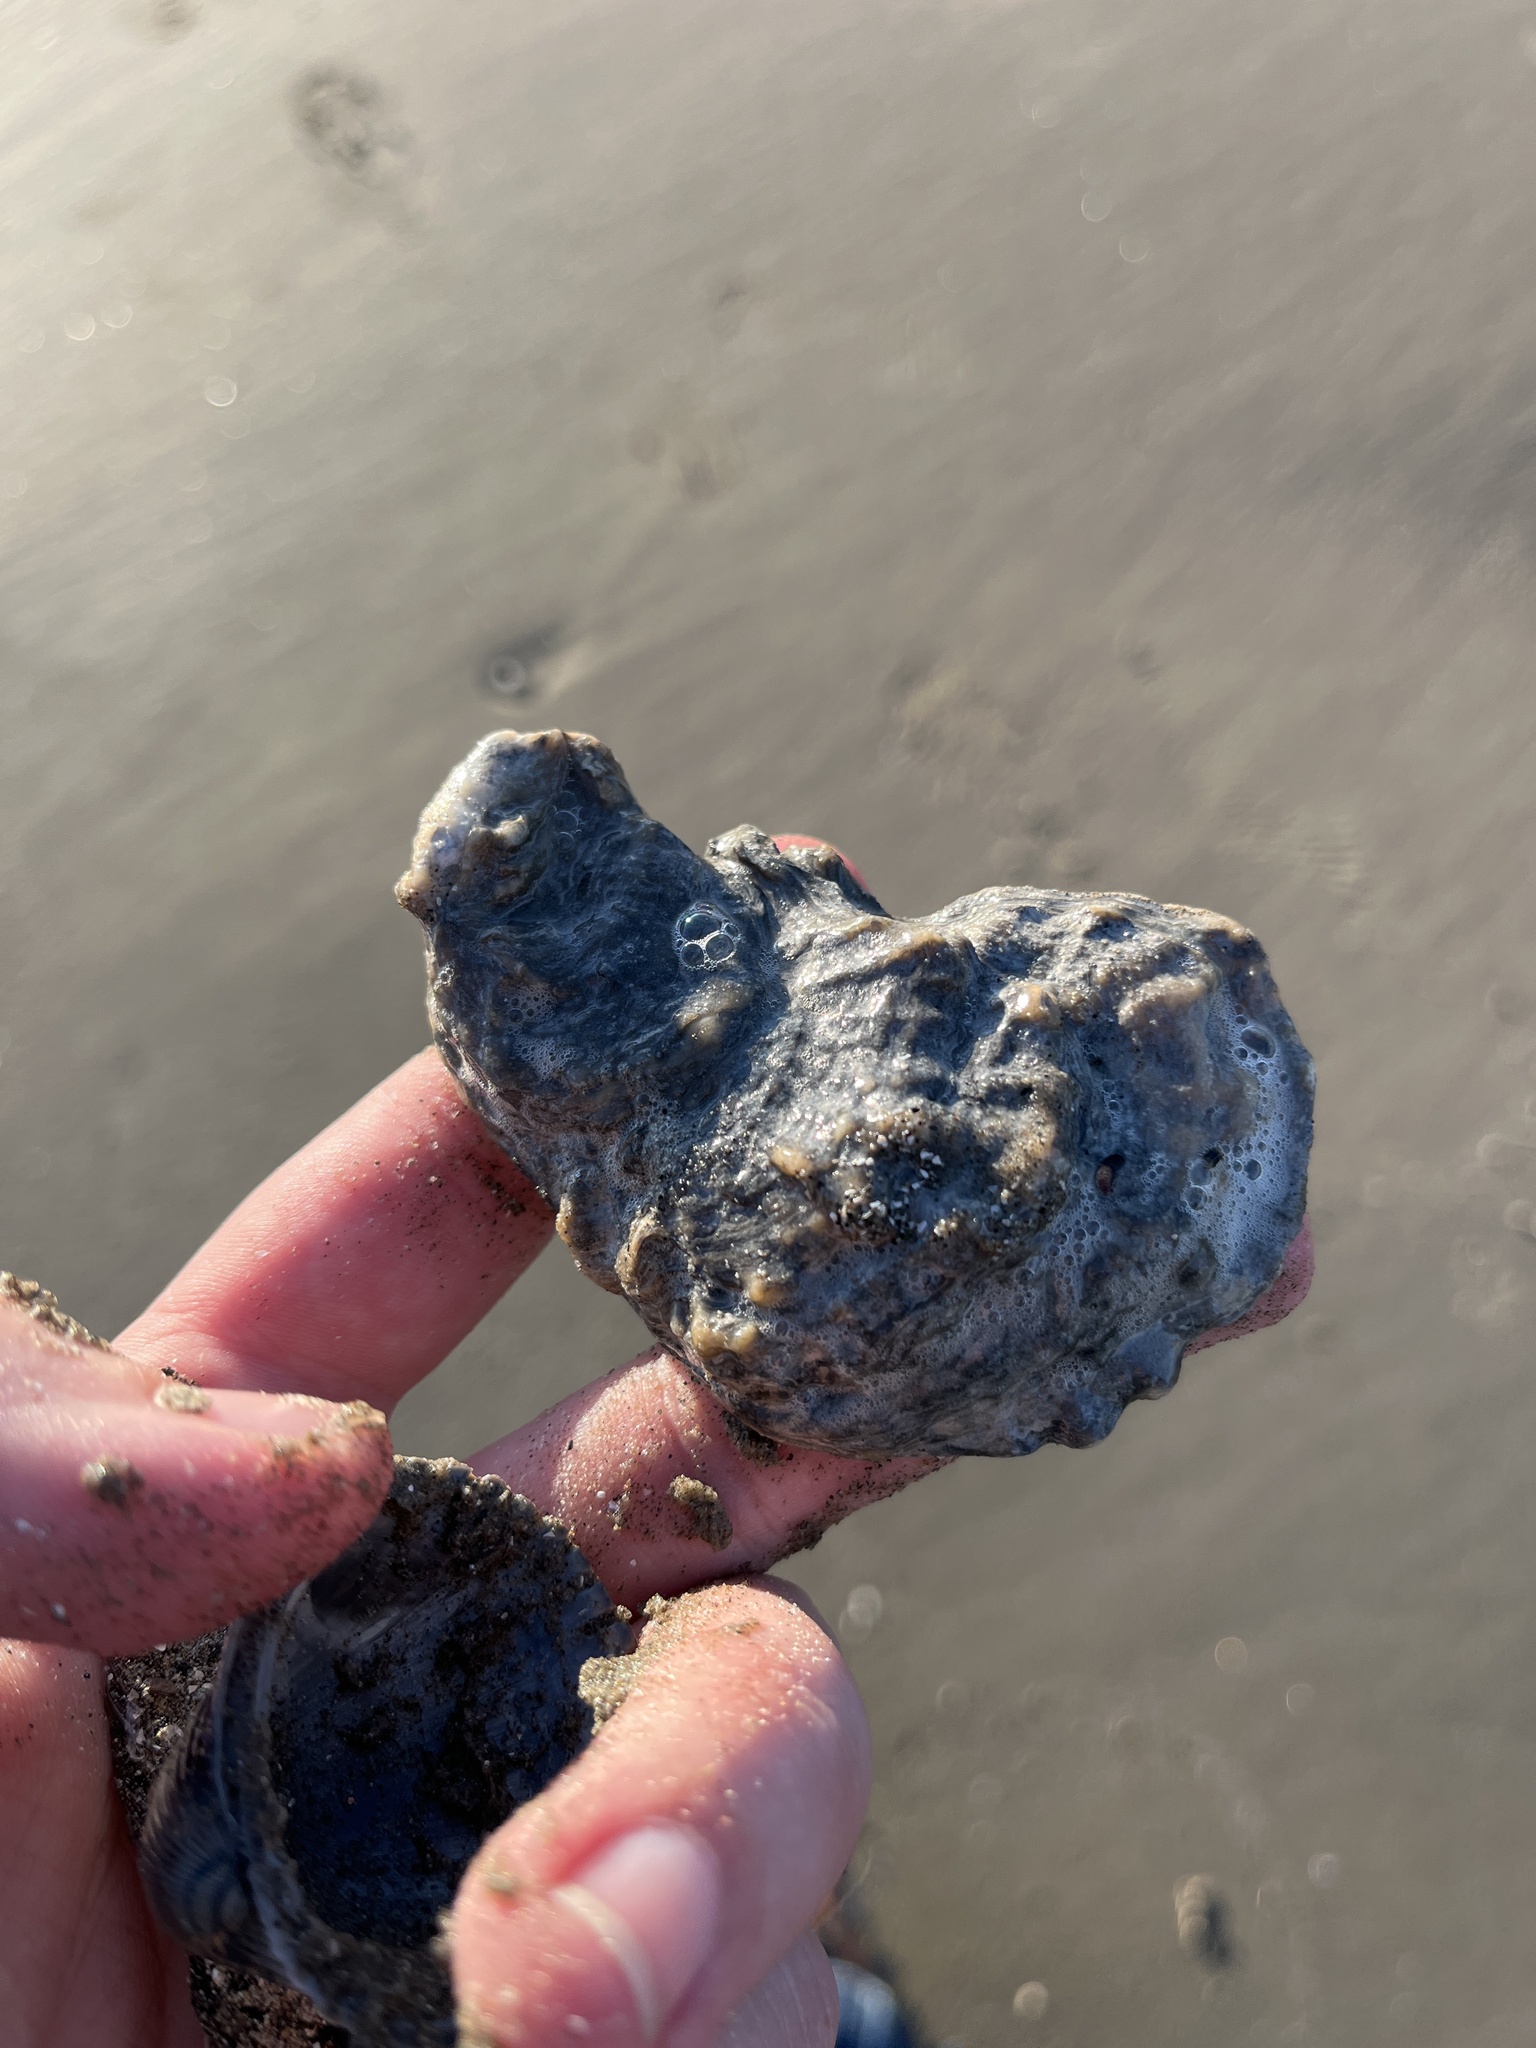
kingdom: Animalia
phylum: Mollusca
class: Bivalvia
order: Ostreida
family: Ostreidae
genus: Crassostrea
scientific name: Crassostrea virginica
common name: American oyster
